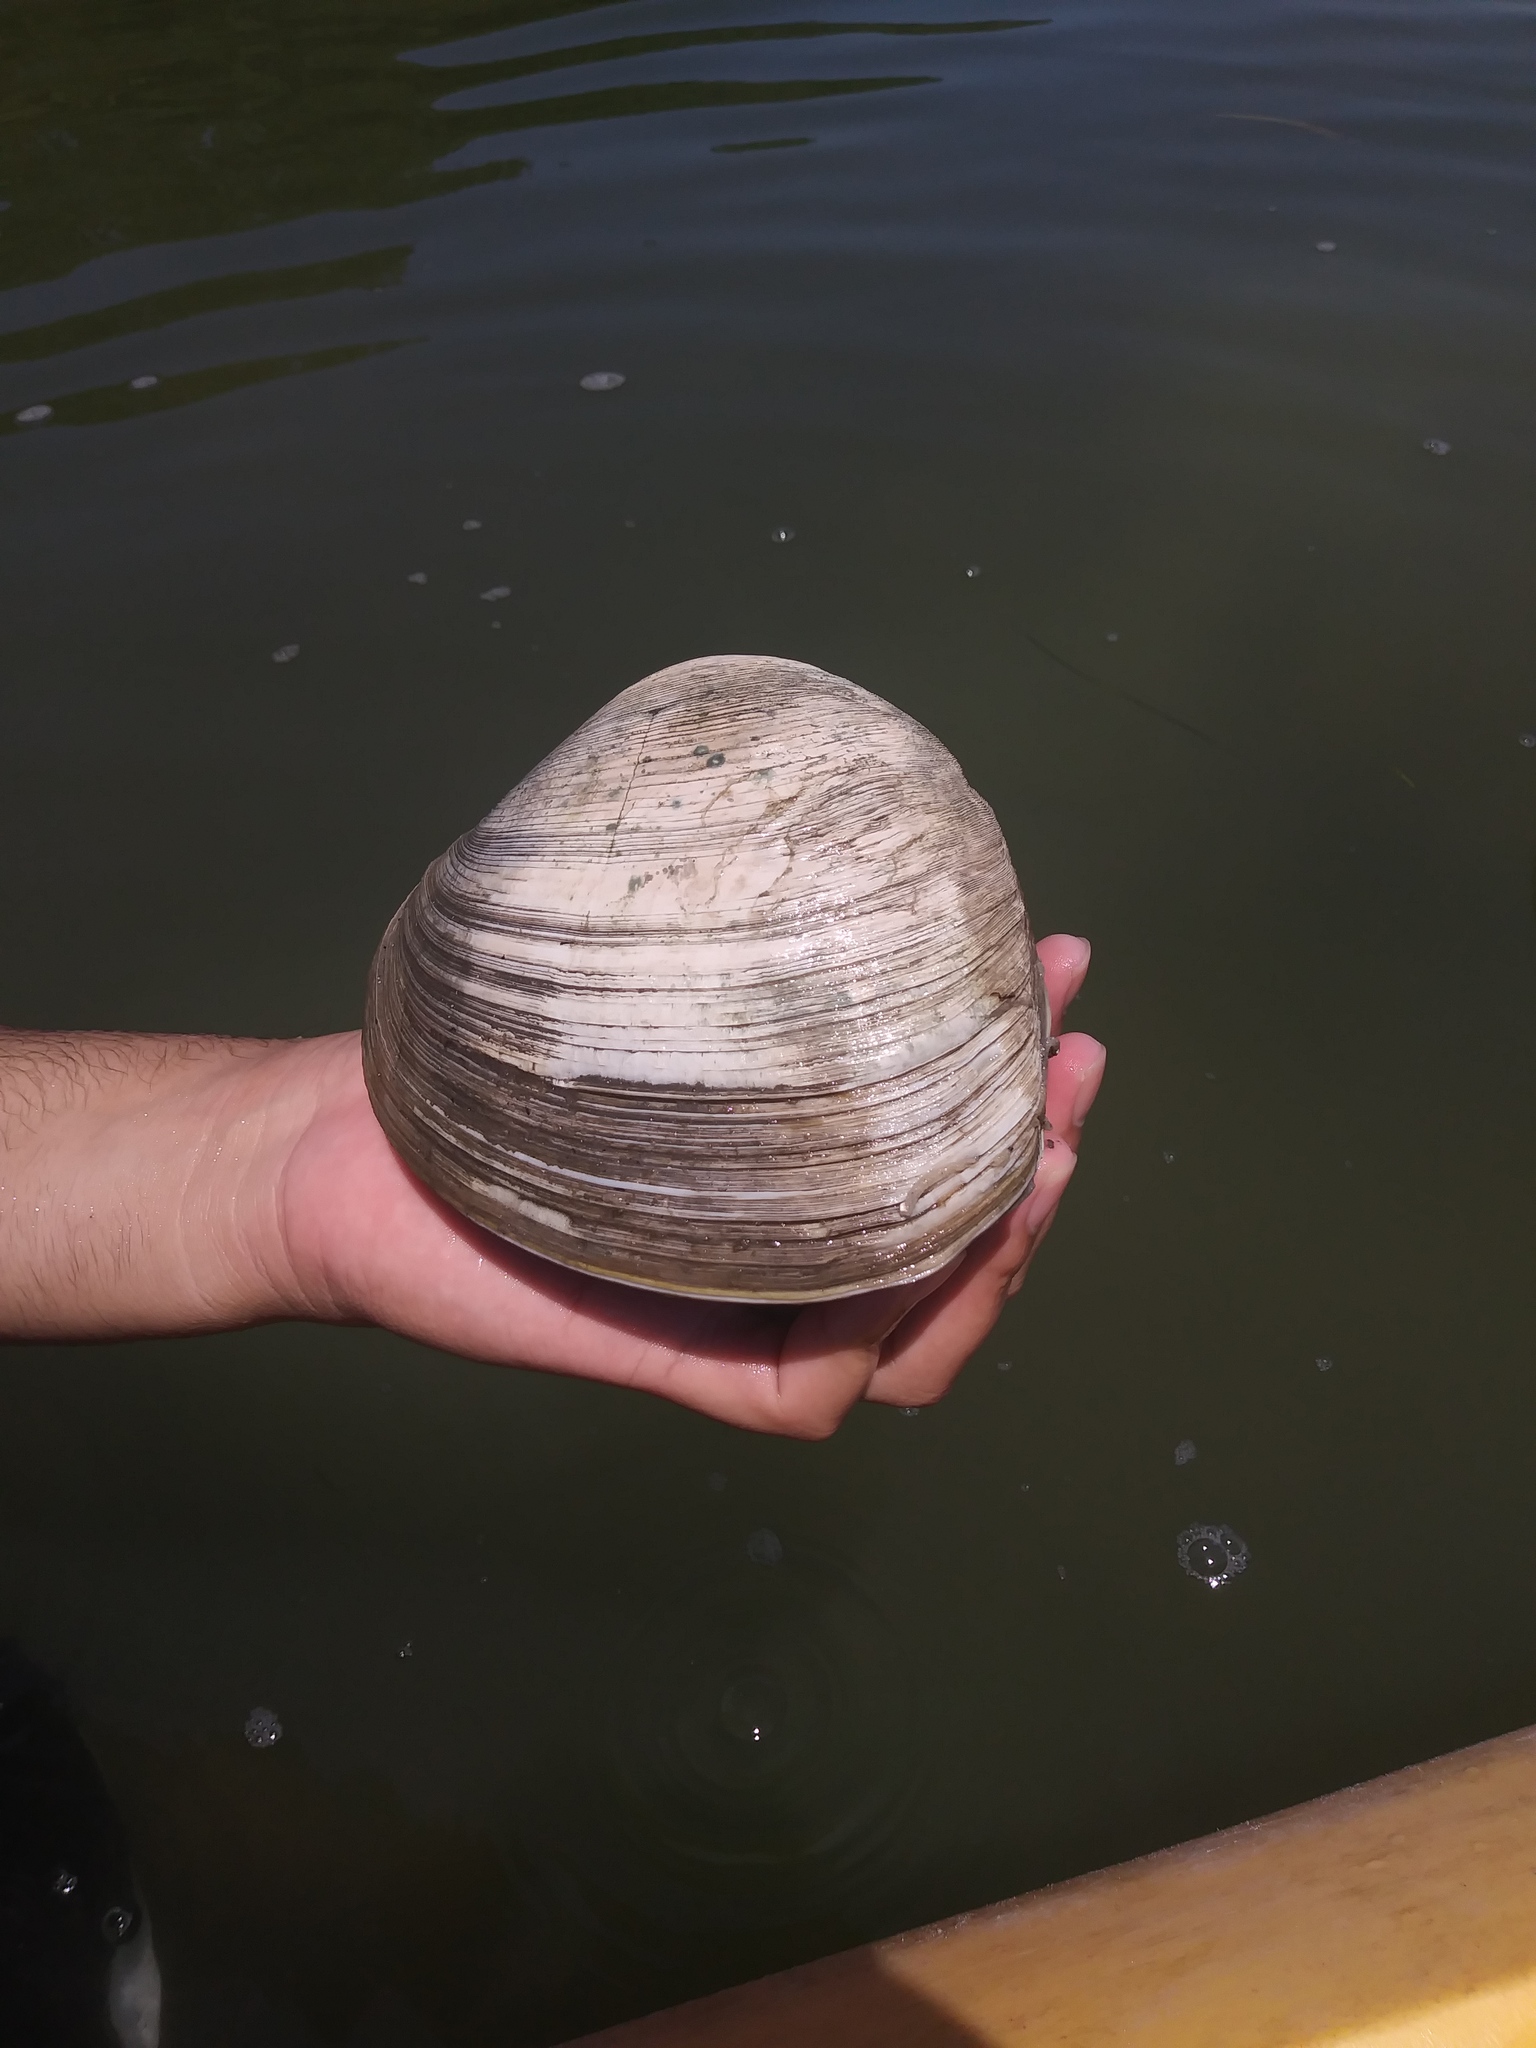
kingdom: Animalia
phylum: Mollusca
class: Bivalvia
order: Venerida
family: Veneridae
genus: Mercenaria
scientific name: Mercenaria campechiensis
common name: Südliche quahog-muschel
